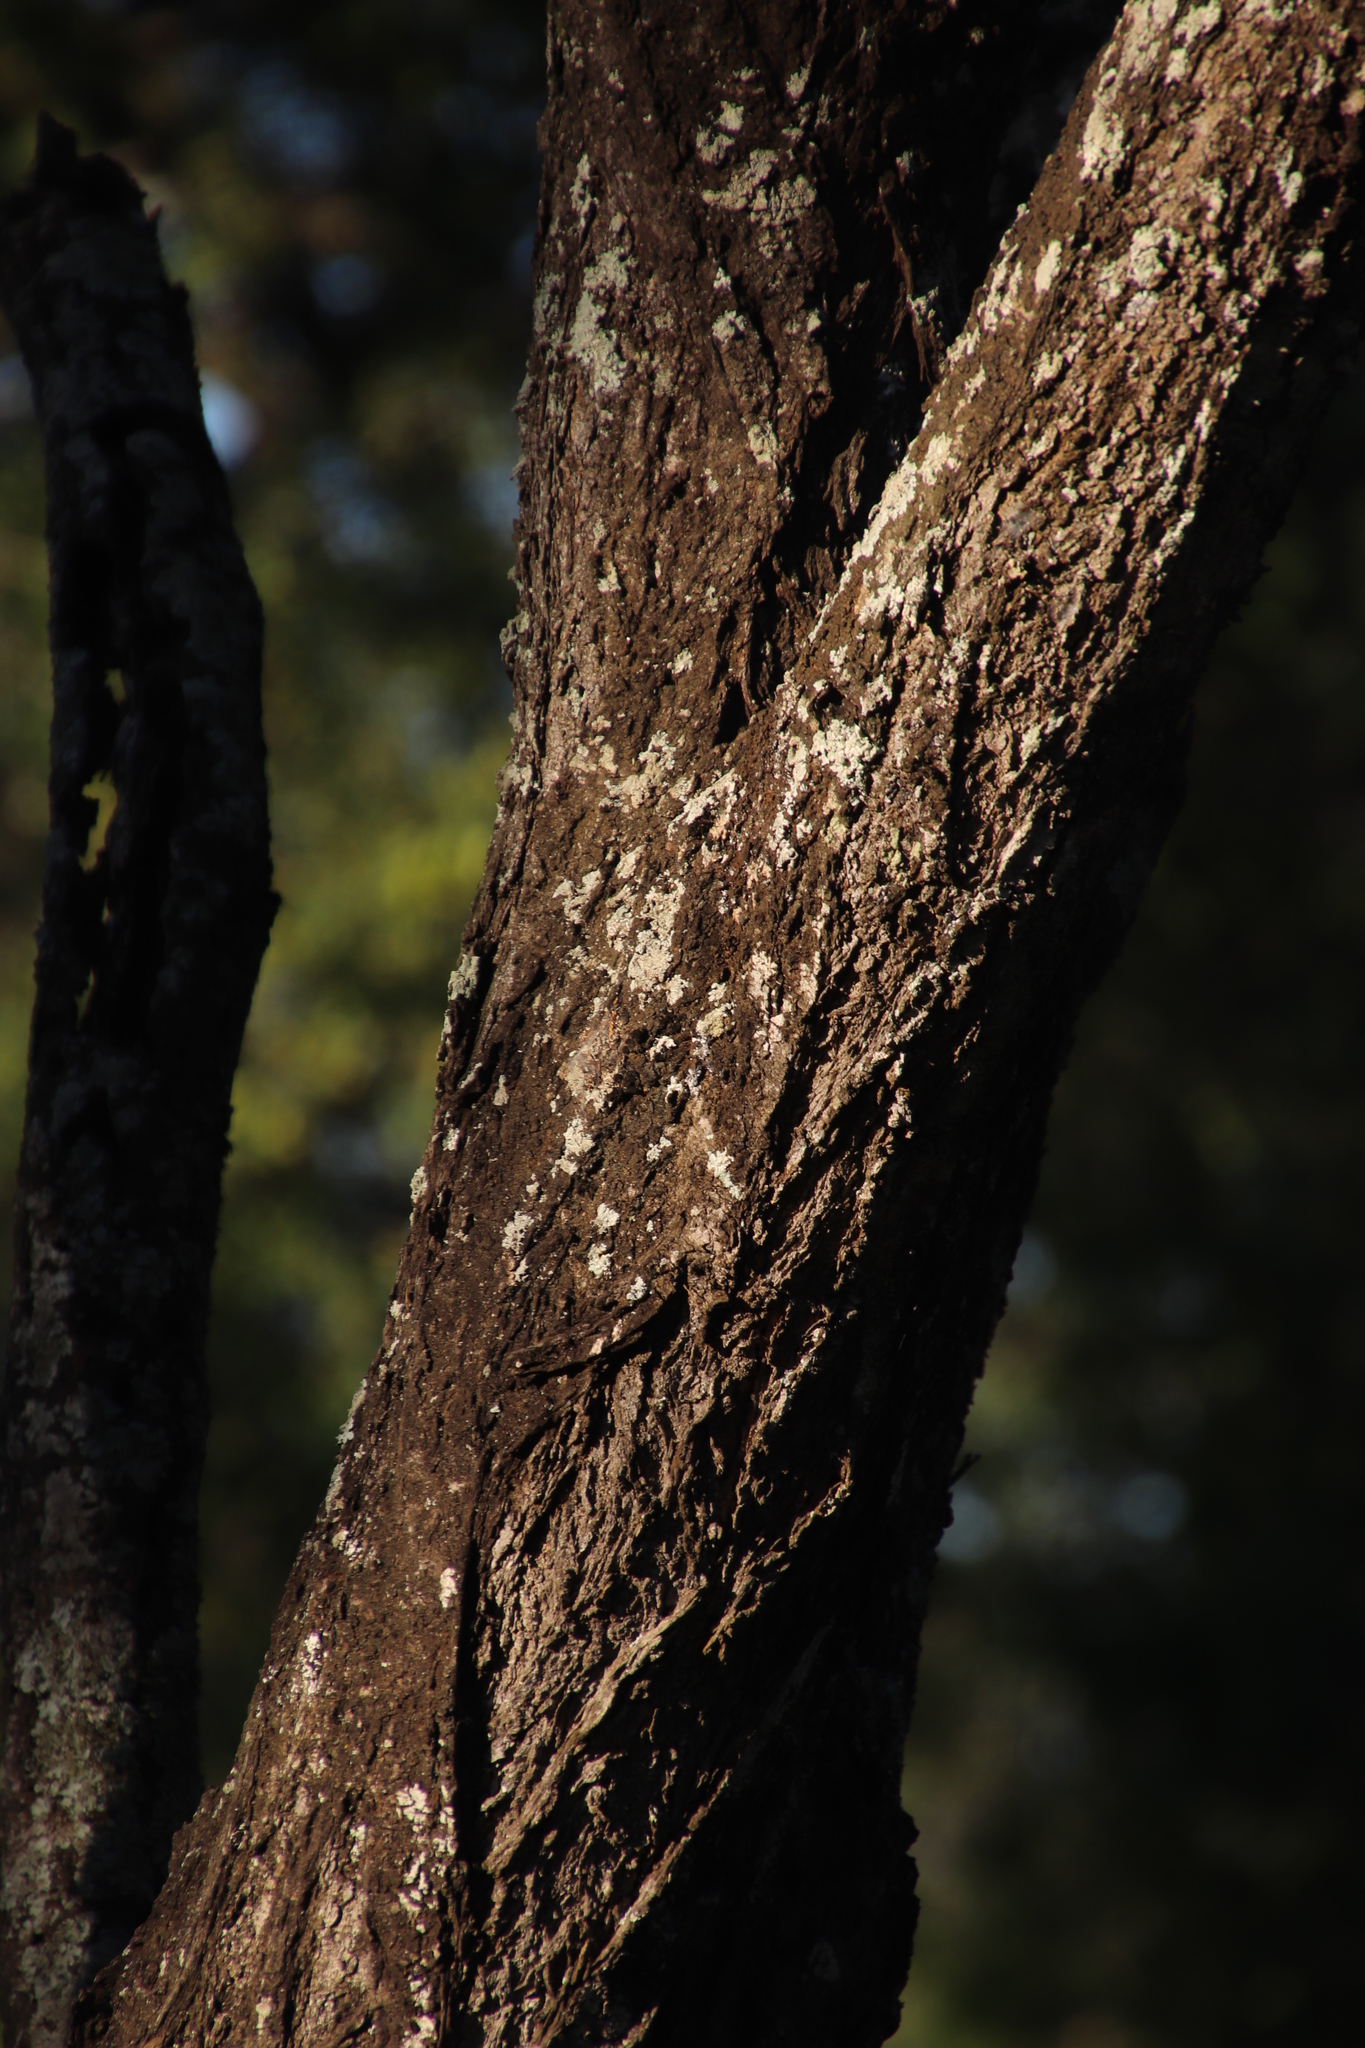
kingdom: Plantae
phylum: Tracheophyta
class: Magnoliopsida
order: Fabales
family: Fabaceae
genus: Vachellia
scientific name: Vachellia tortilis
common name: Umbrella thorn acacia
